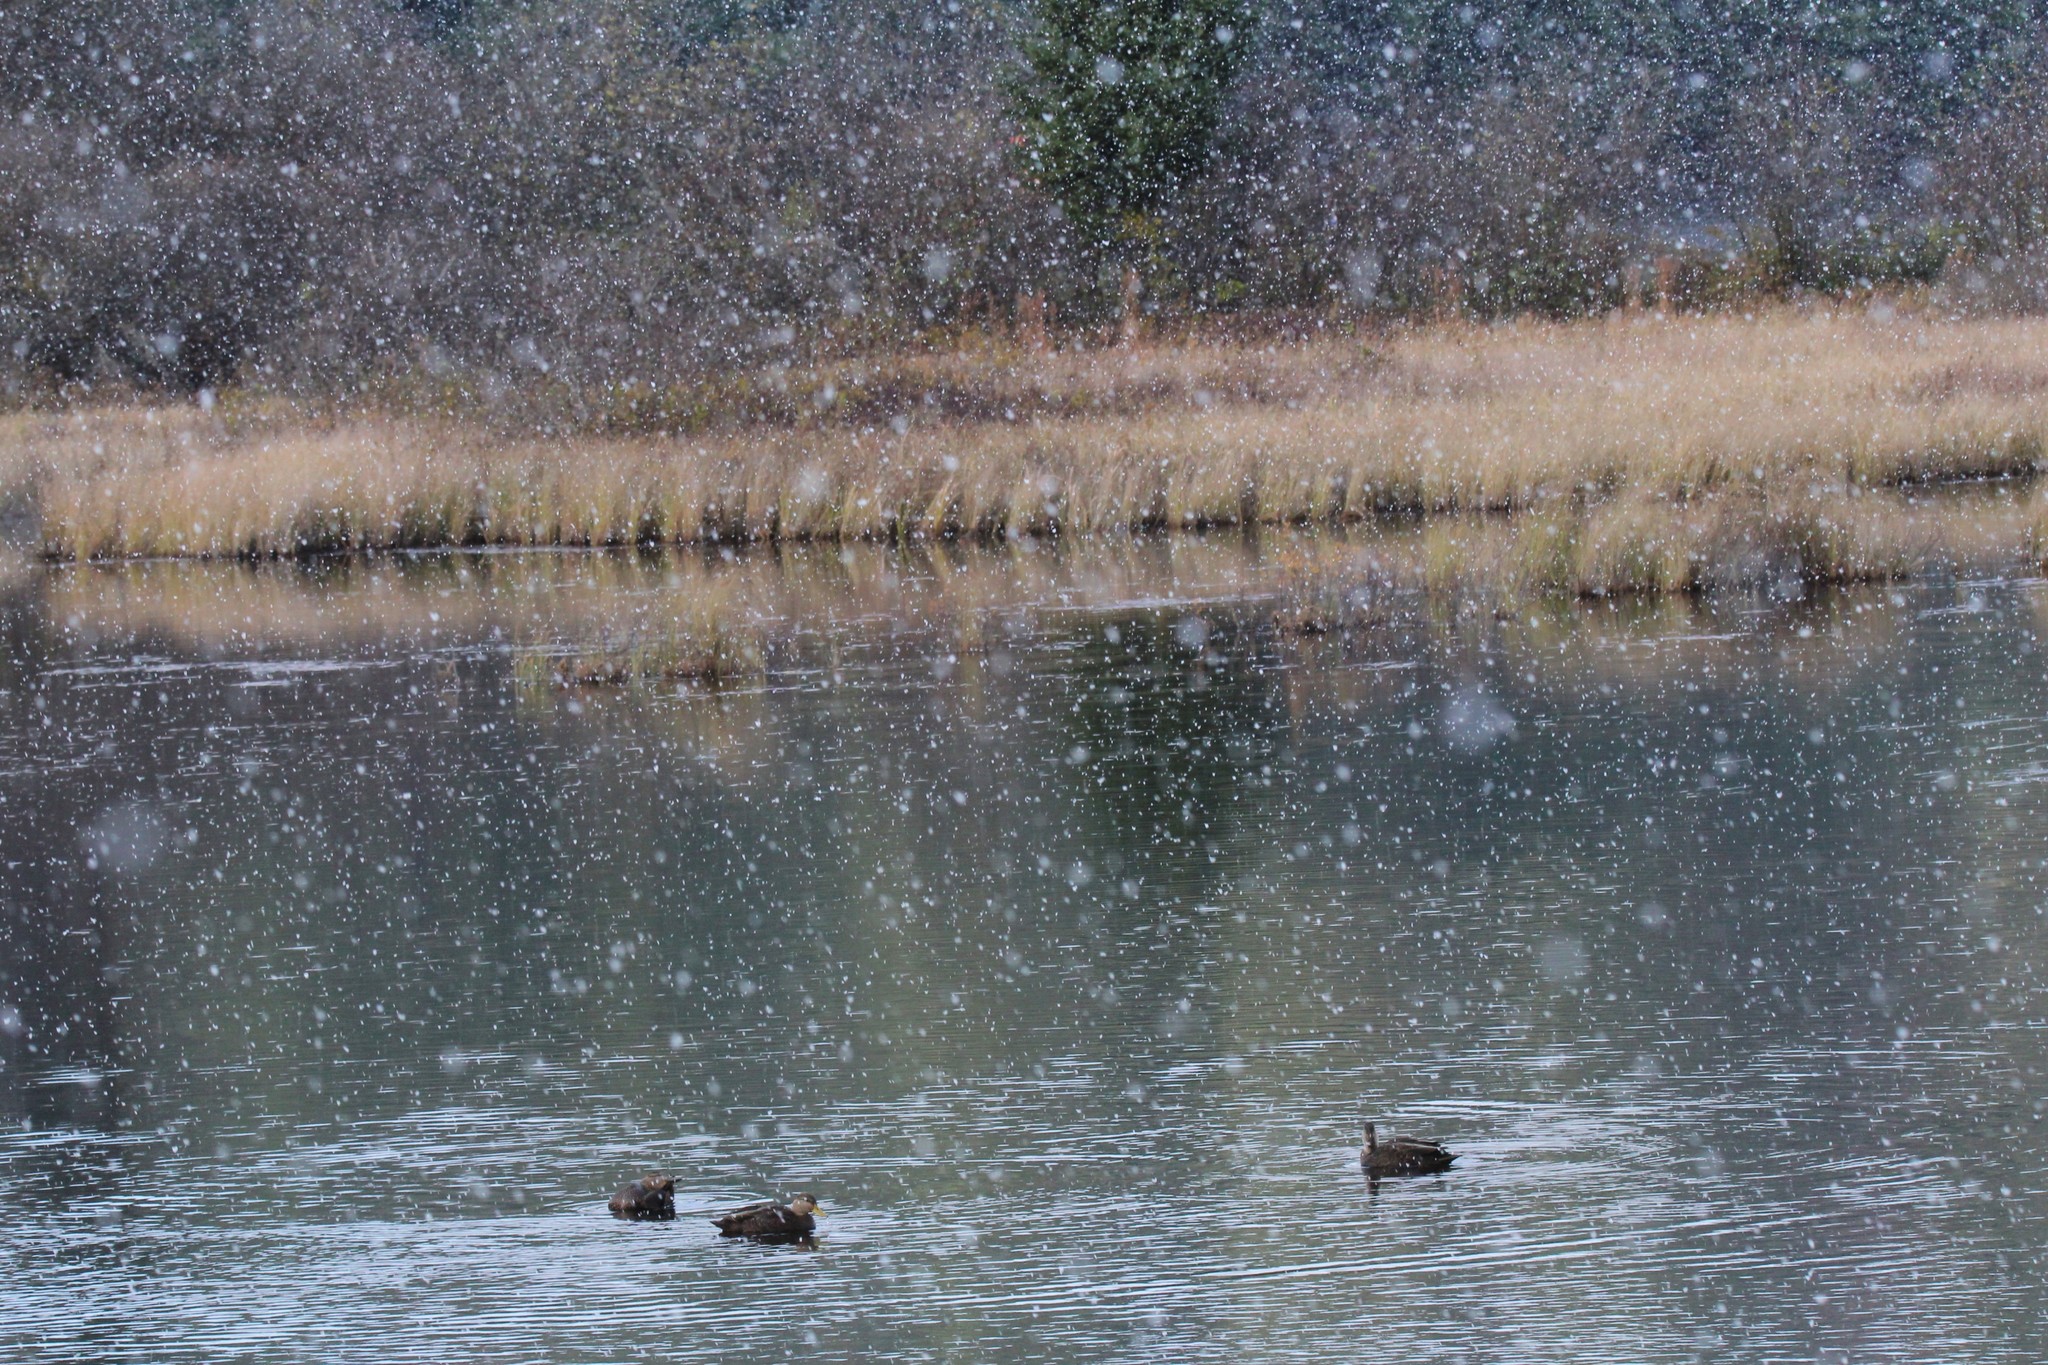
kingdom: Animalia
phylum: Chordata
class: Aves
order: Anseriformes
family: Anatidae
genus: Anas
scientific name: Anas rubripes
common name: American black duck
